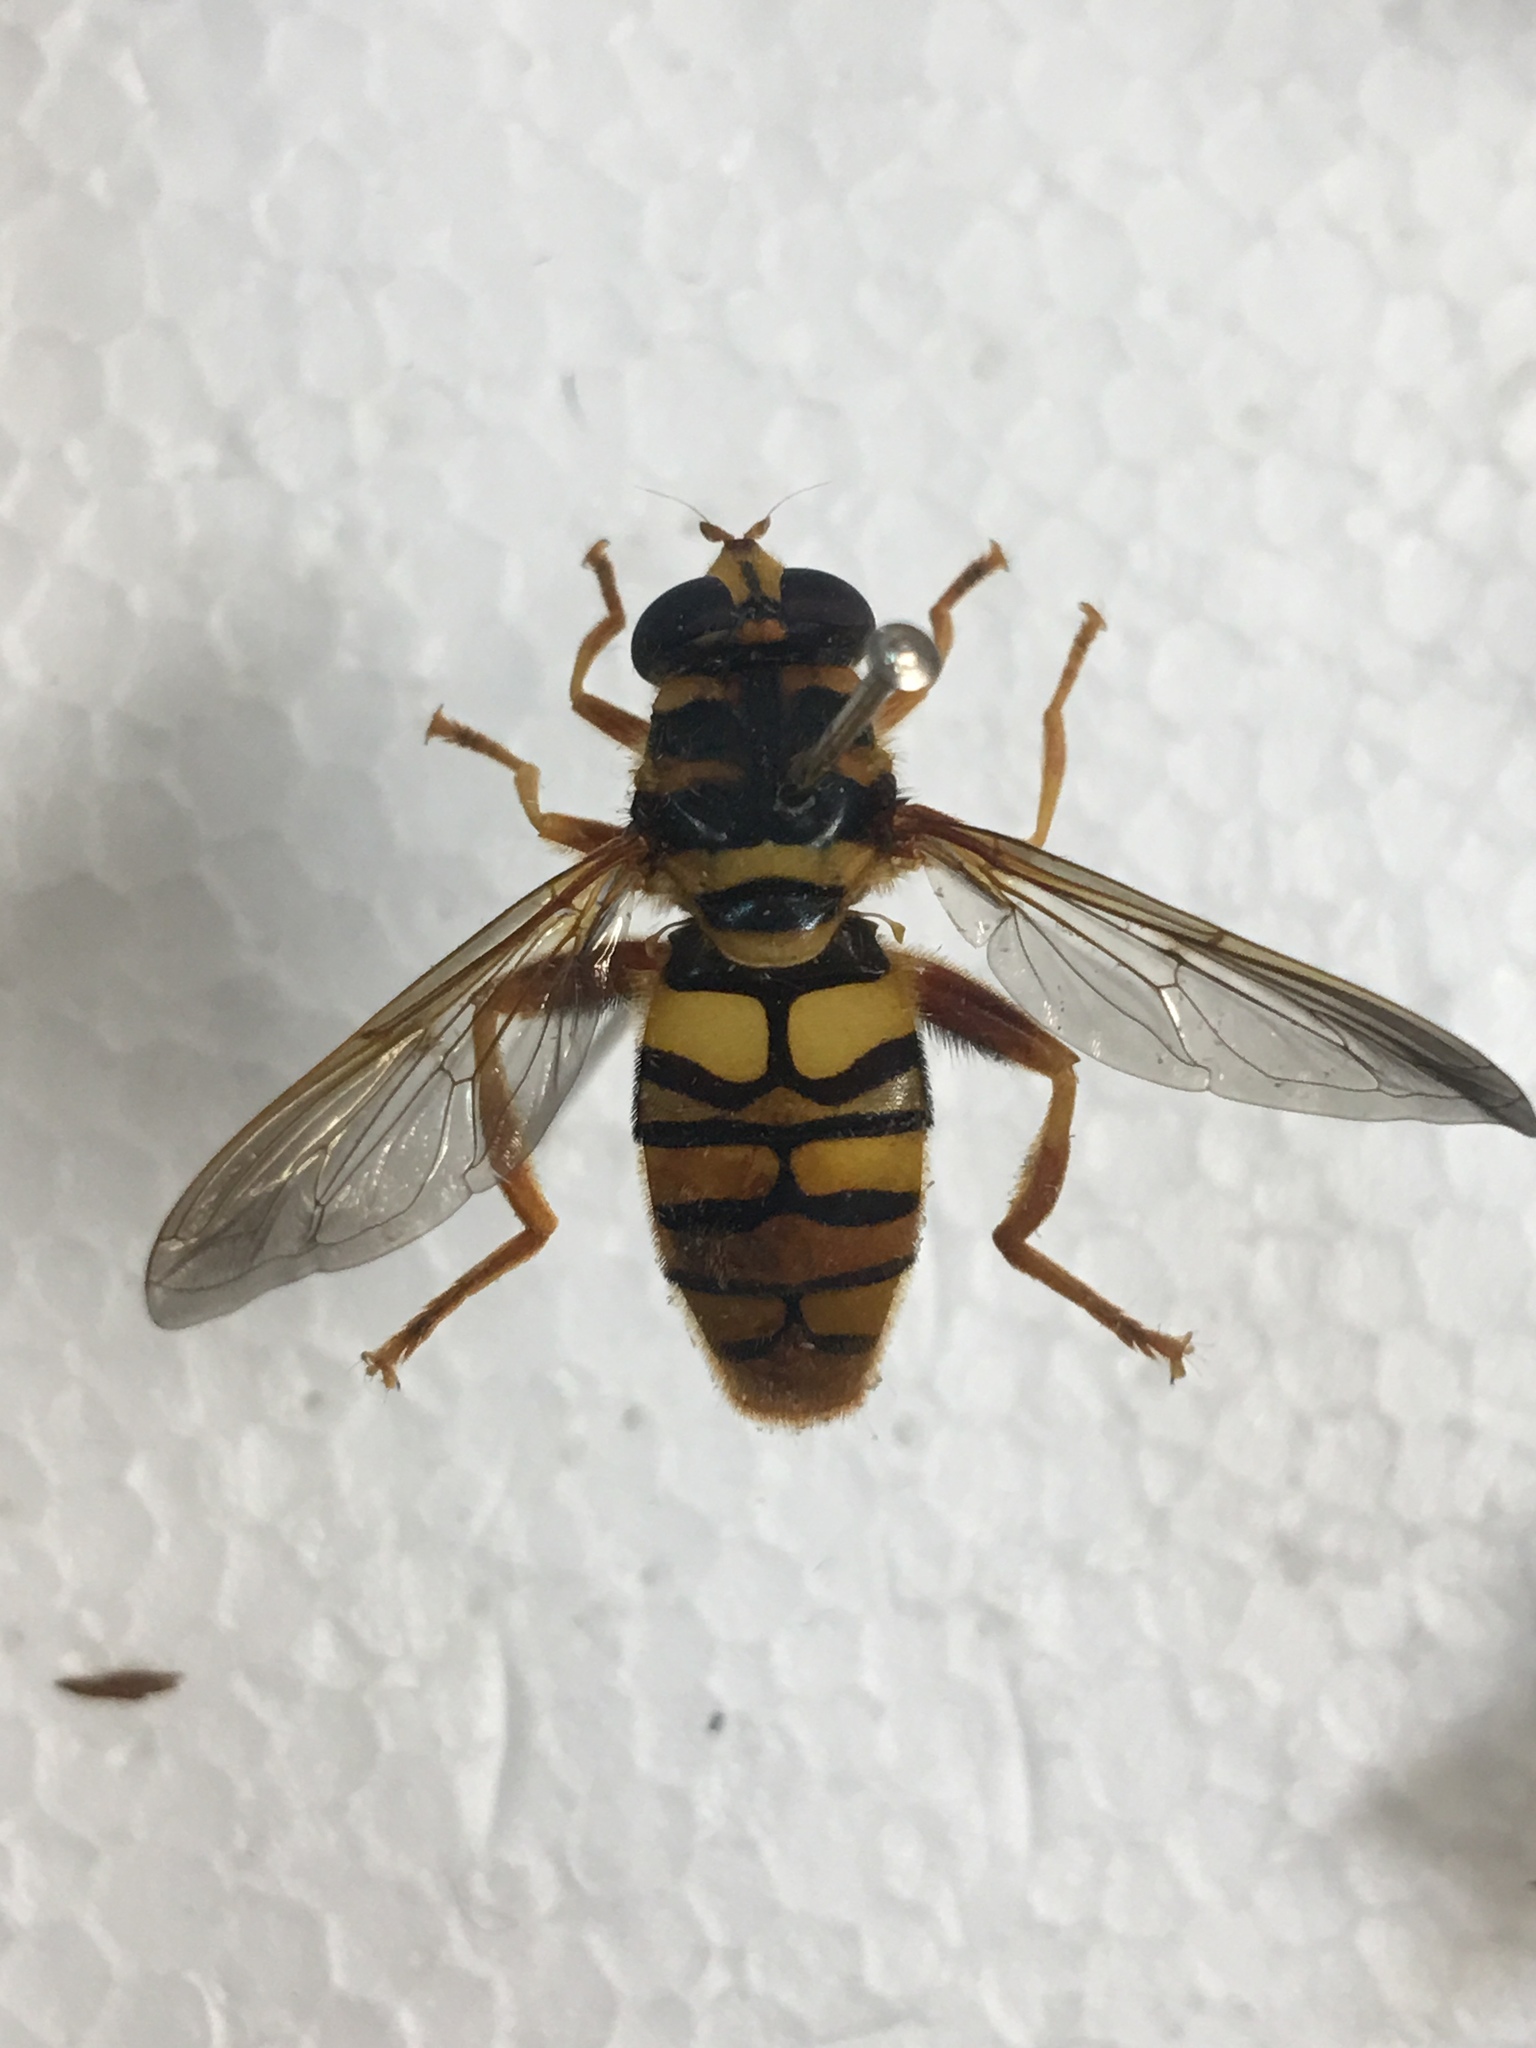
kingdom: Animalia
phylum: Arthropoda
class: Insecta
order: Diptera
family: Syrphidae
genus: Milesia
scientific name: Milesia virginiensis
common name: Virginia giant
